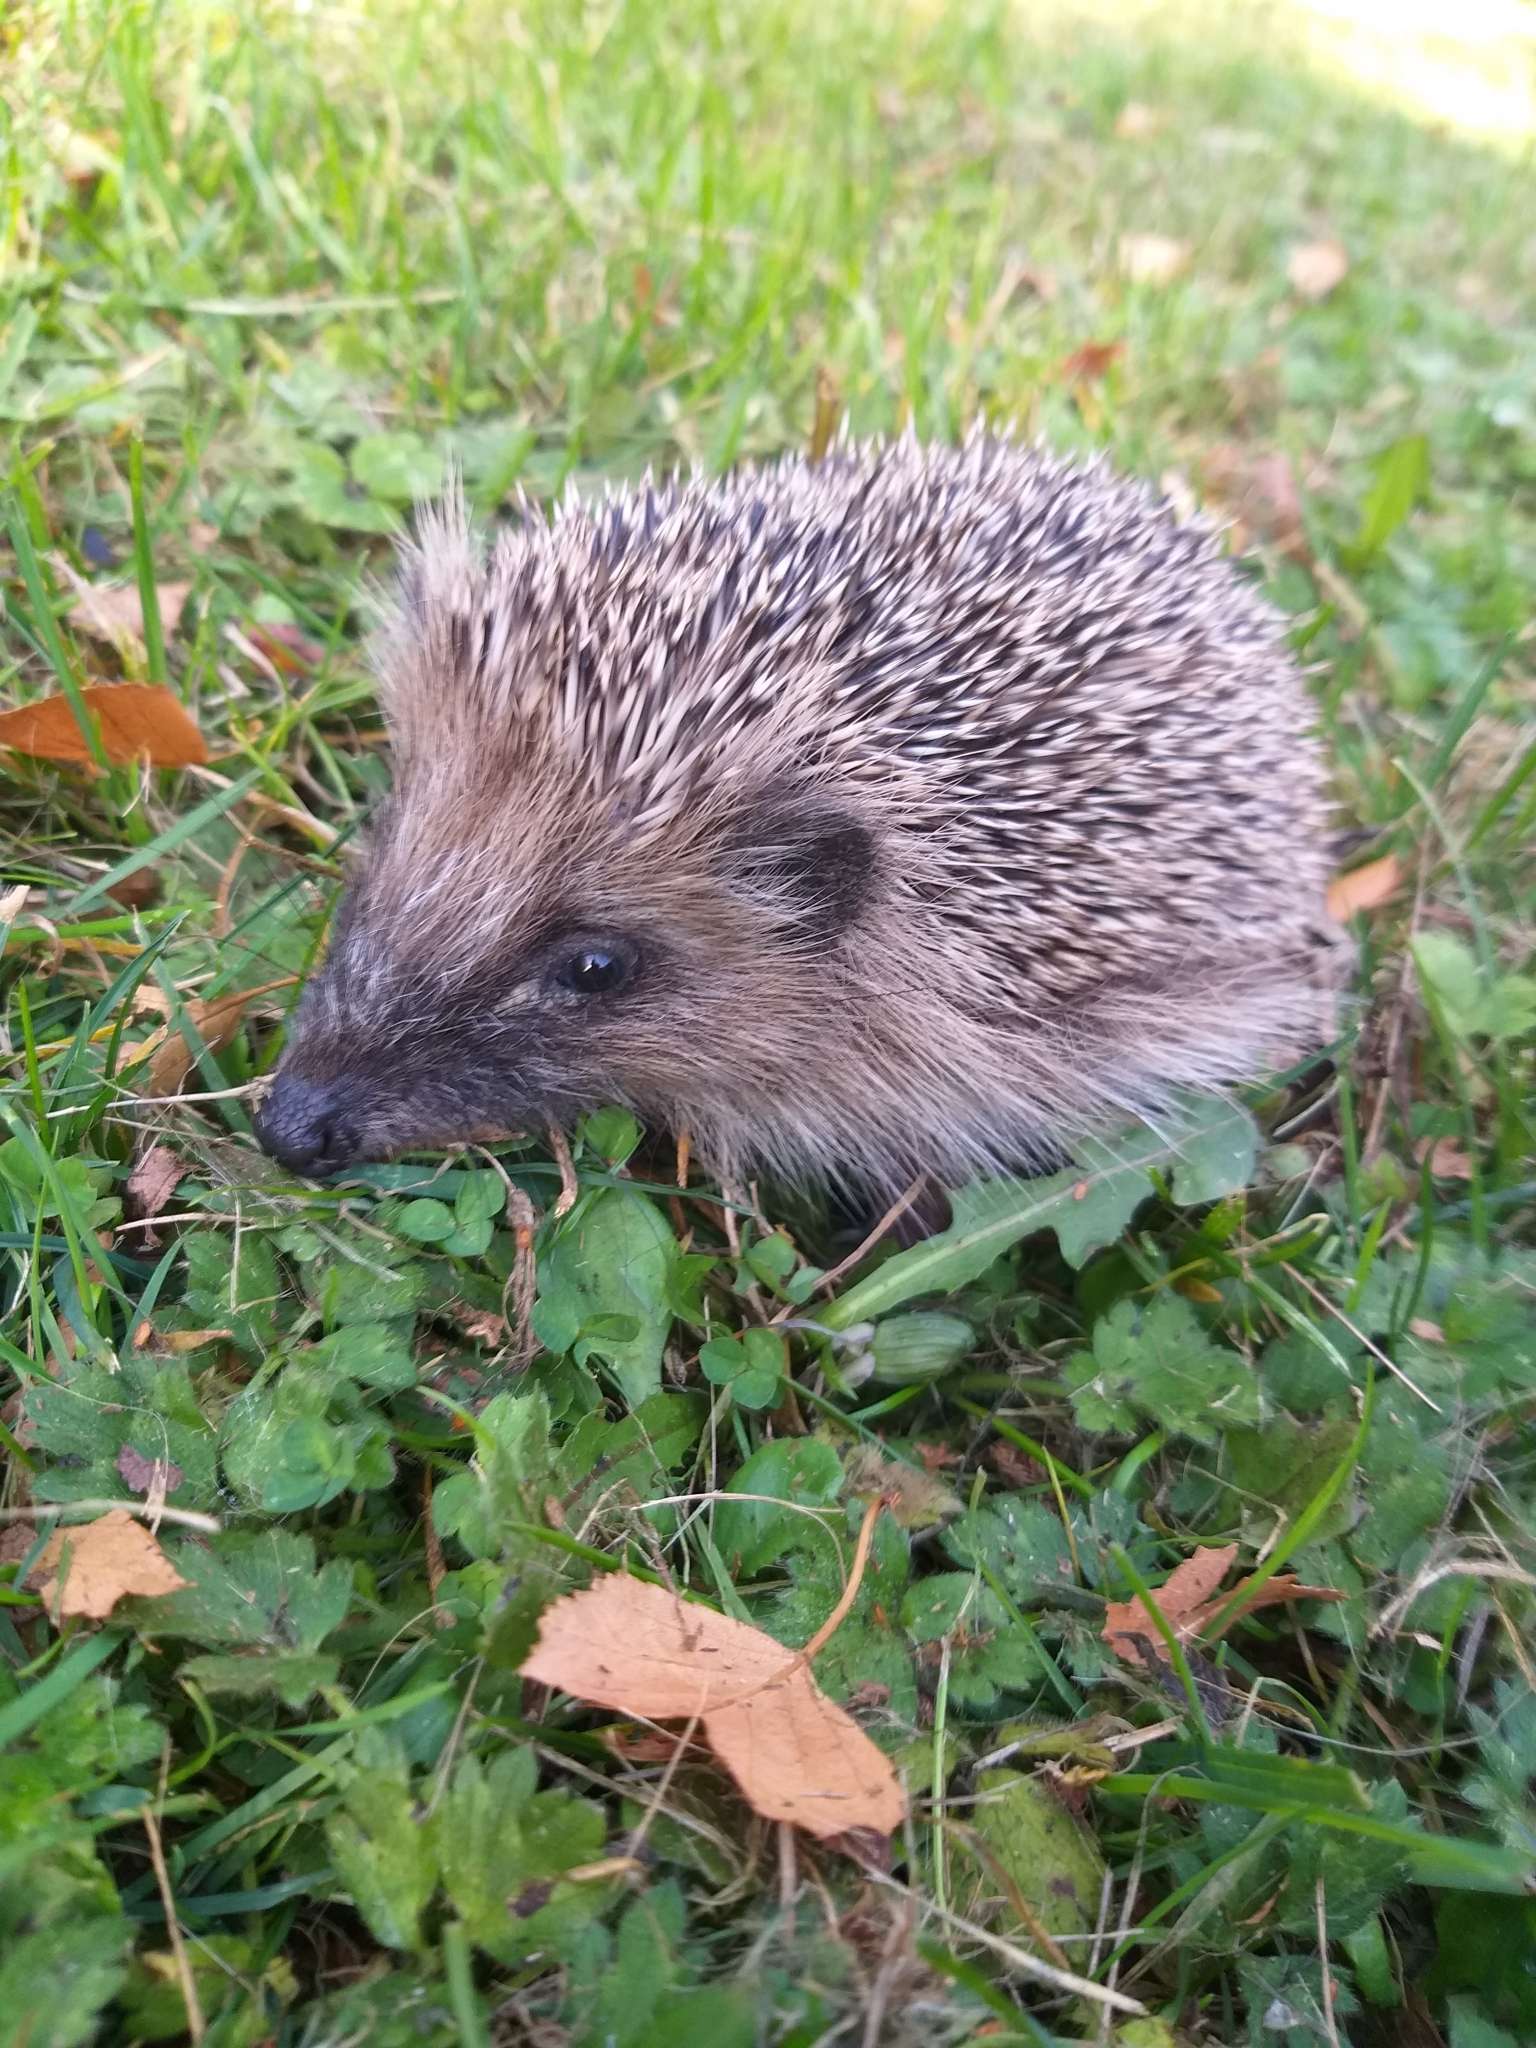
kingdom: Animalia
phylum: Chordata
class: Mammalia
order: Erinaceomorpha
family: Erinaceidae
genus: Erinaceus
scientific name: Erinaceus europaeus
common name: West european hedgehog
